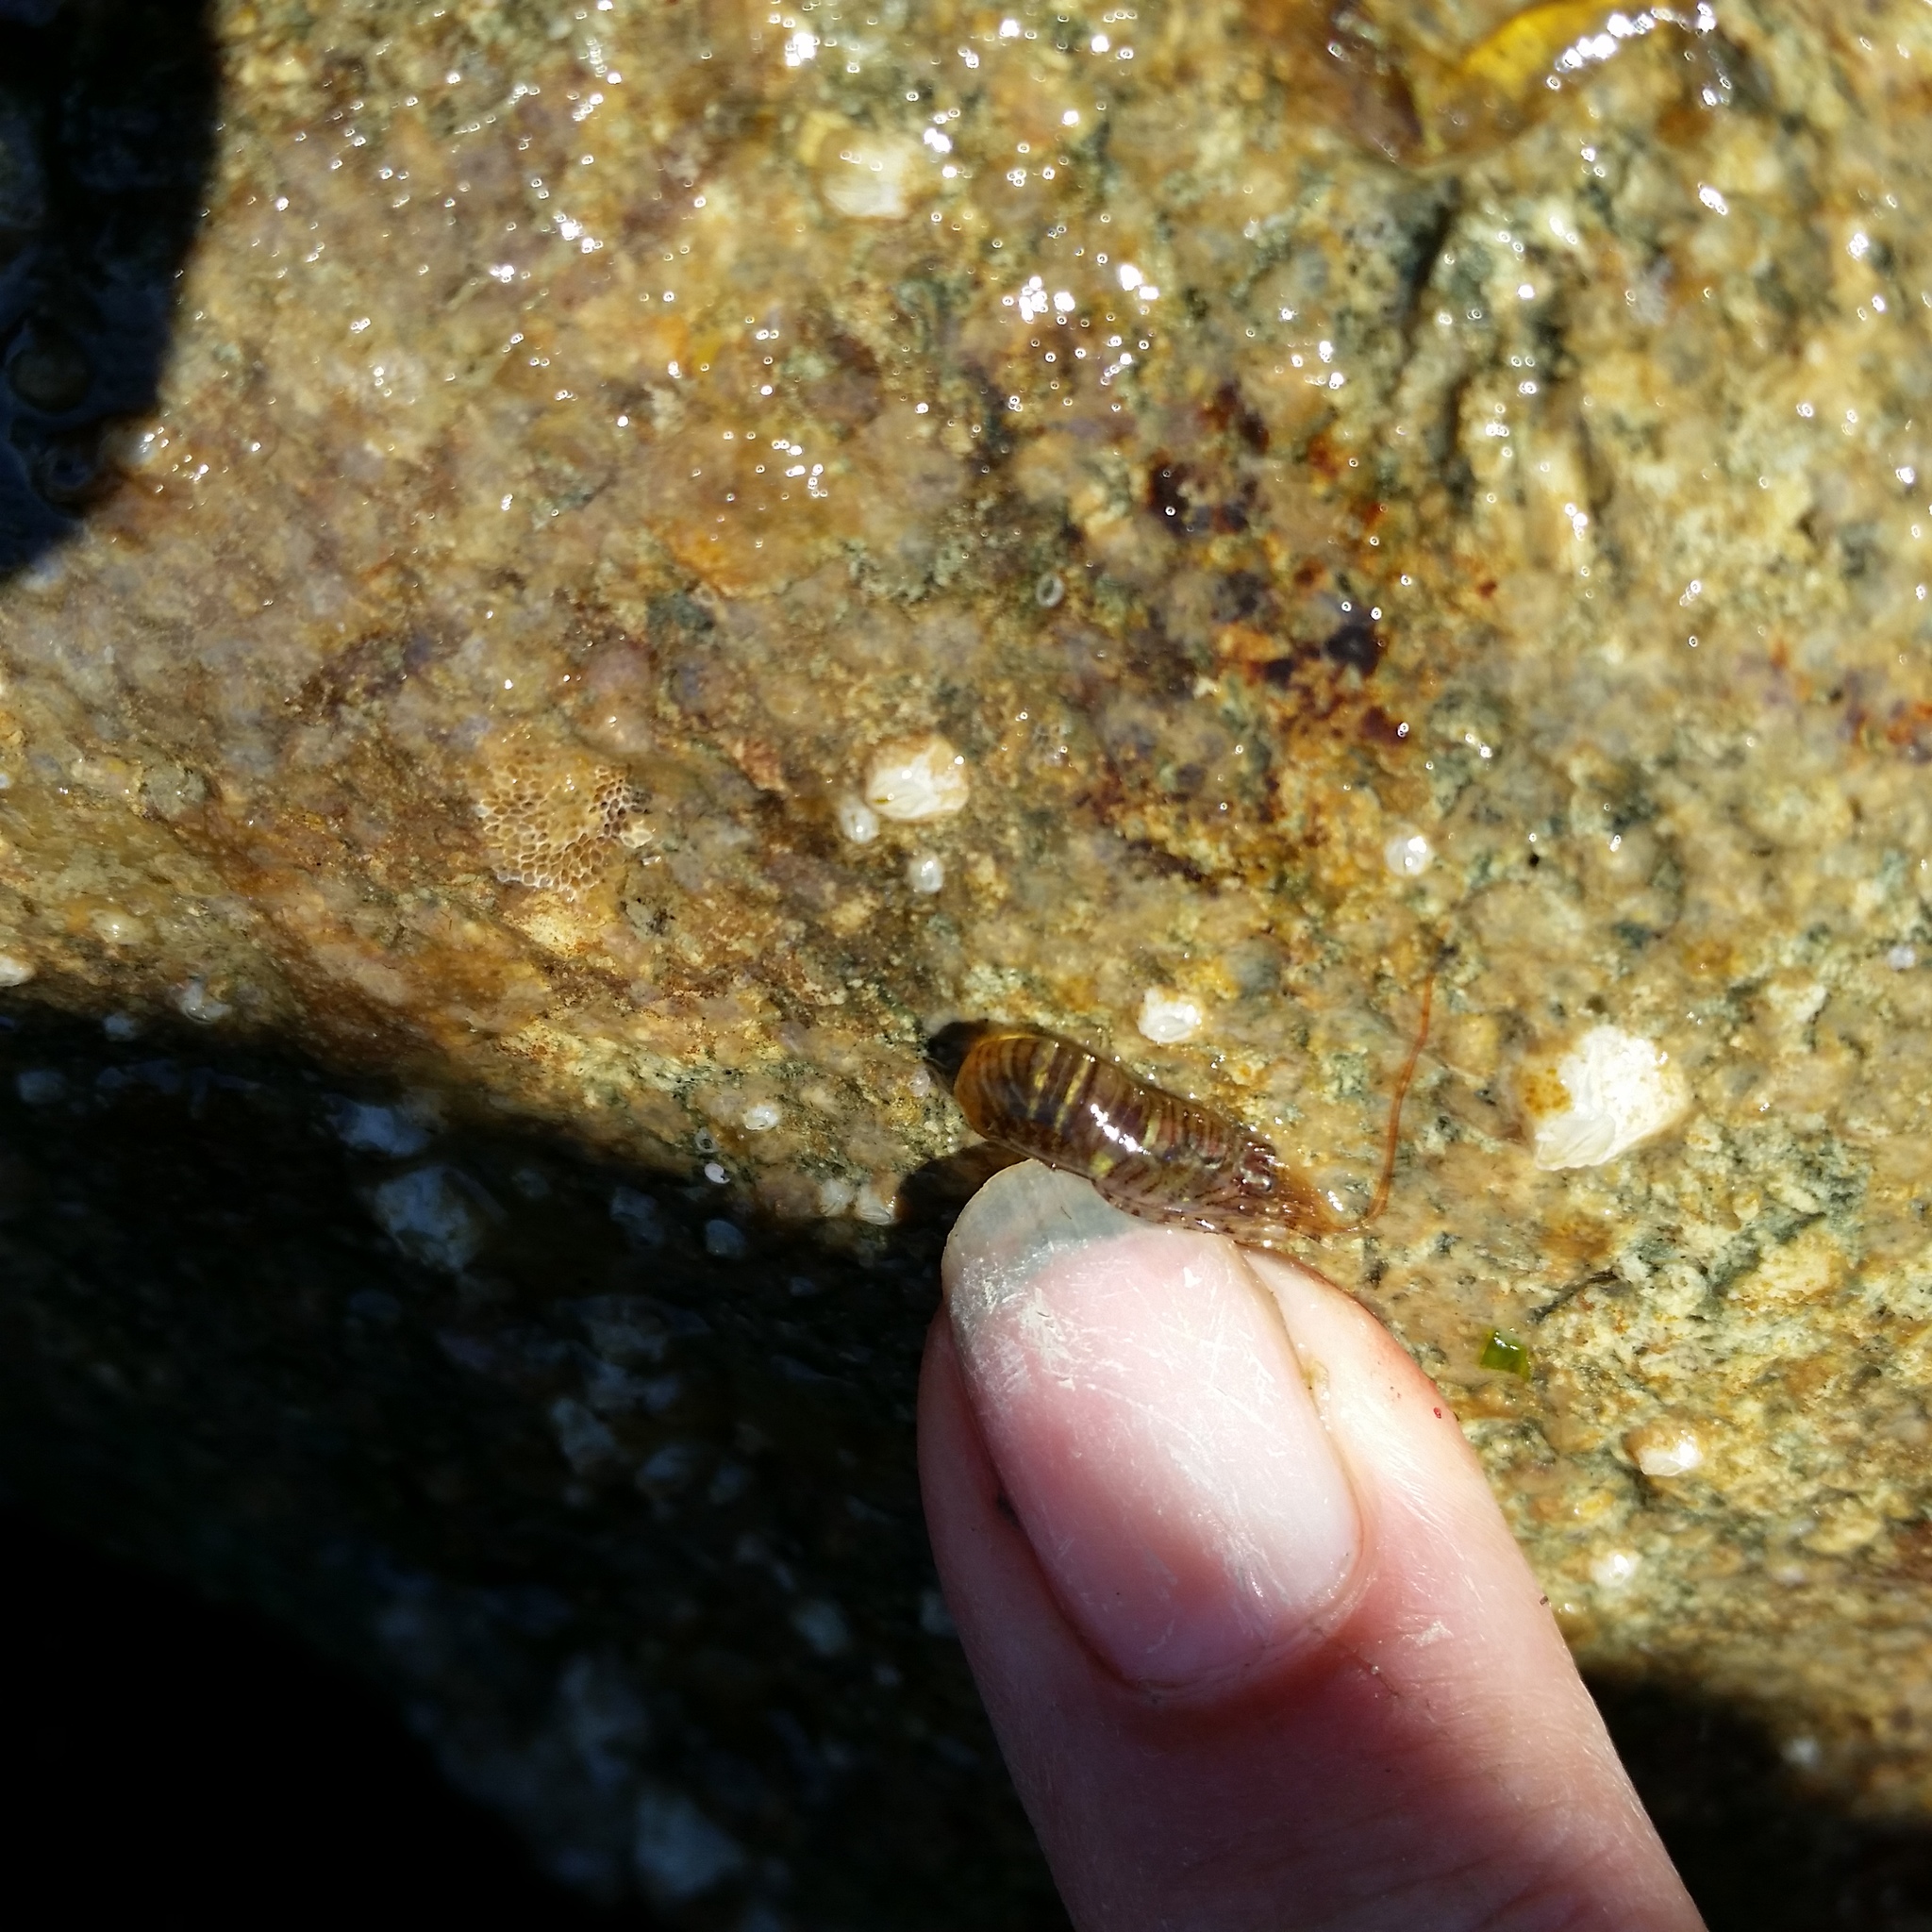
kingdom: Animalia
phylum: Arthropoda
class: Malacostraca
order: Decapoda
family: Thoridae
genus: Heptacarpus
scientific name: Heptacarpus sitchensis
